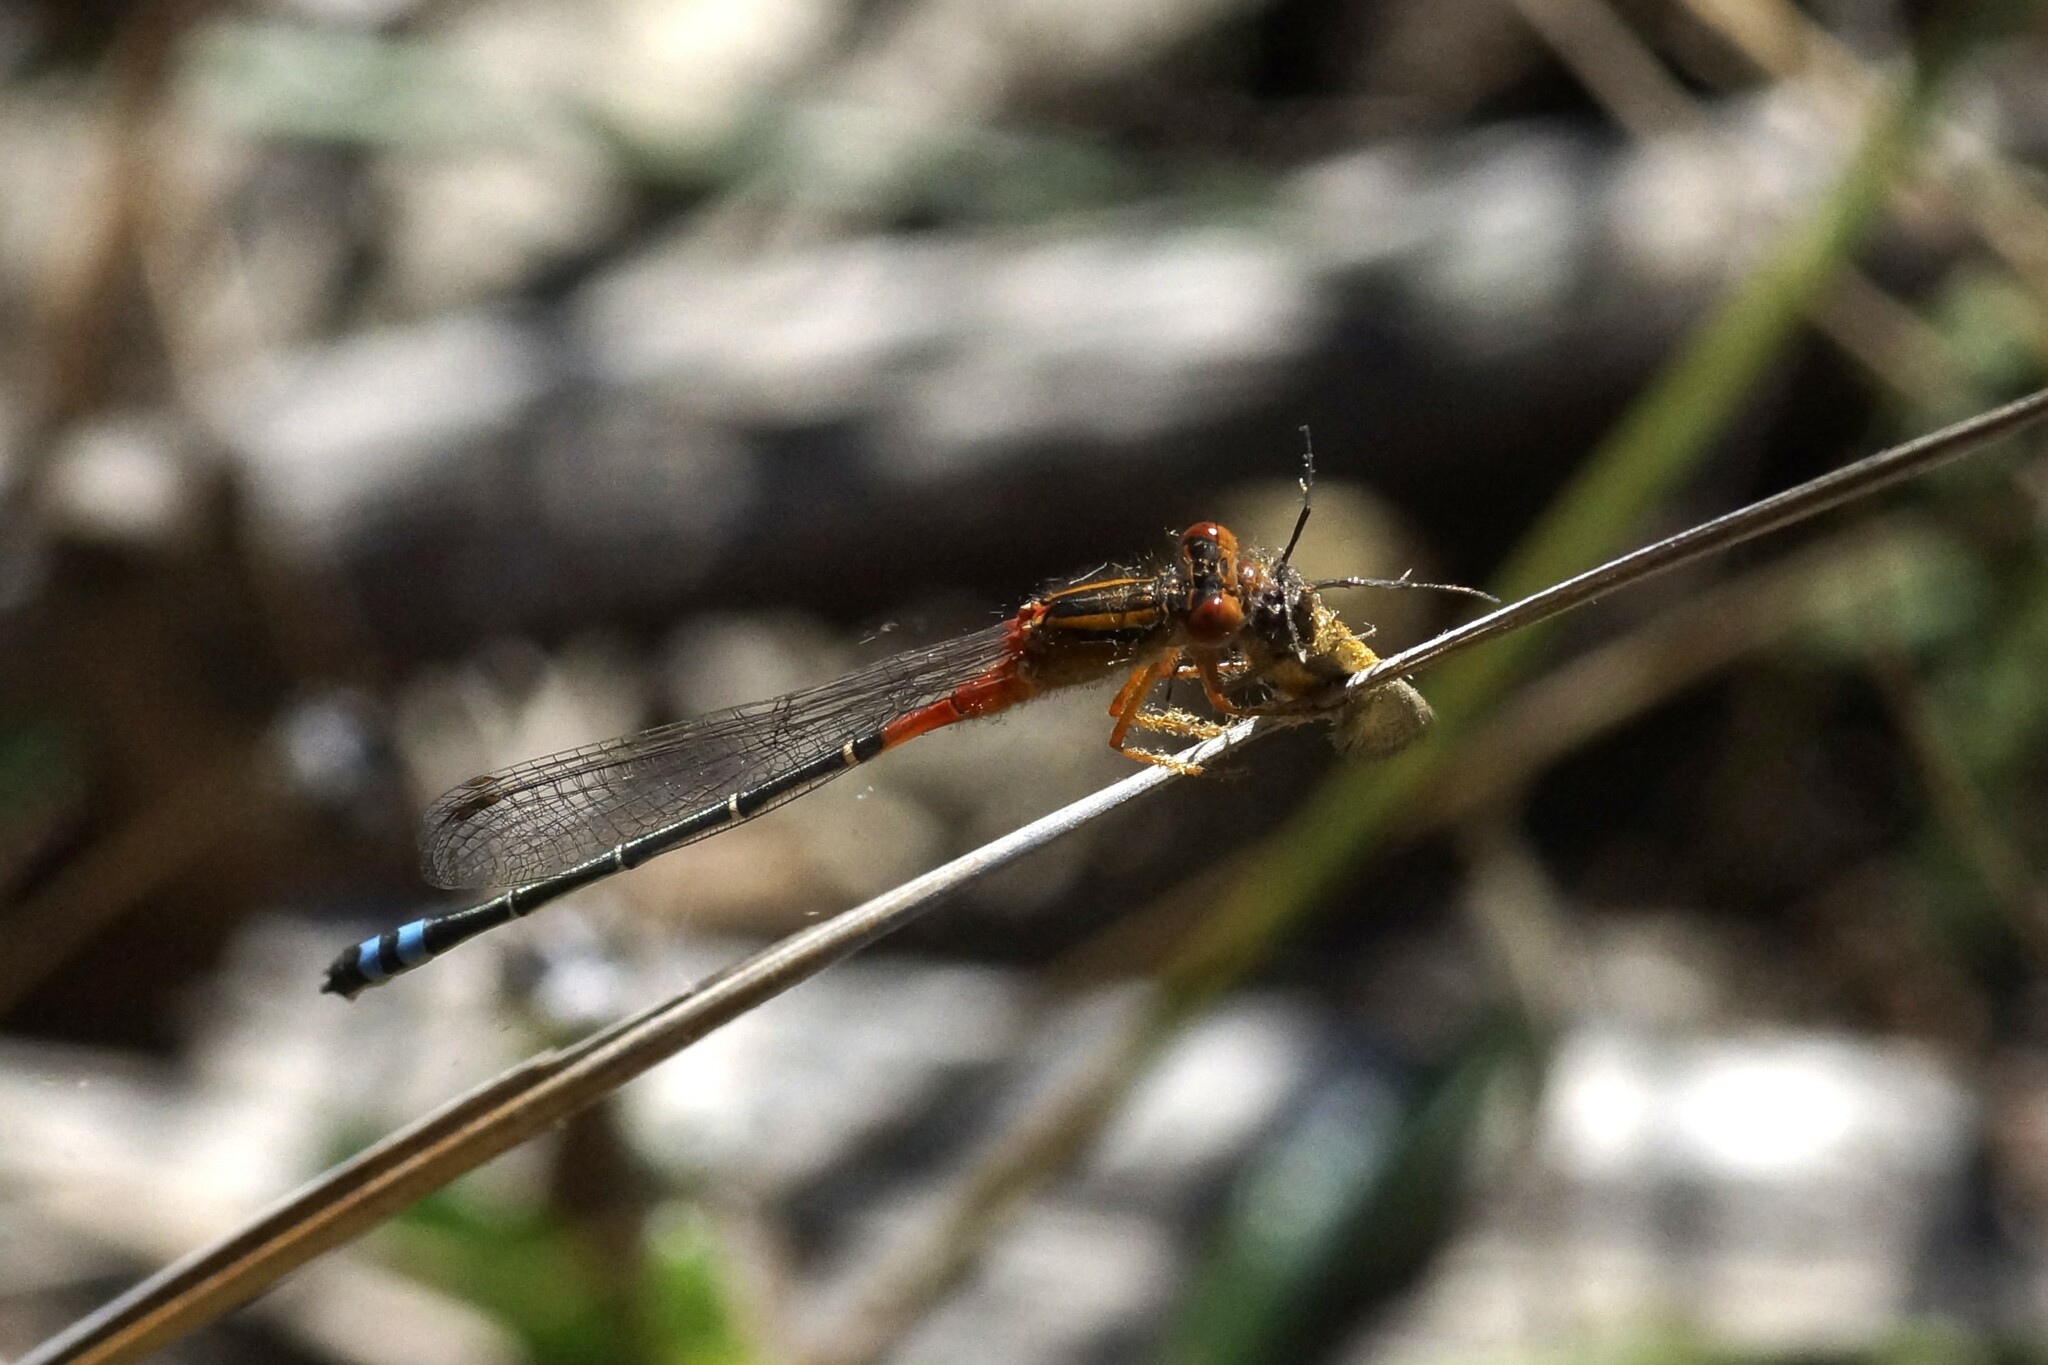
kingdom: Animalia
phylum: Arthropoda
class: Insecta
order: Odonata
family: Coenagrionidae
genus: Xanthagrion
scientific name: Xanthagrion erythroneurum
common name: Red and blue damsel
